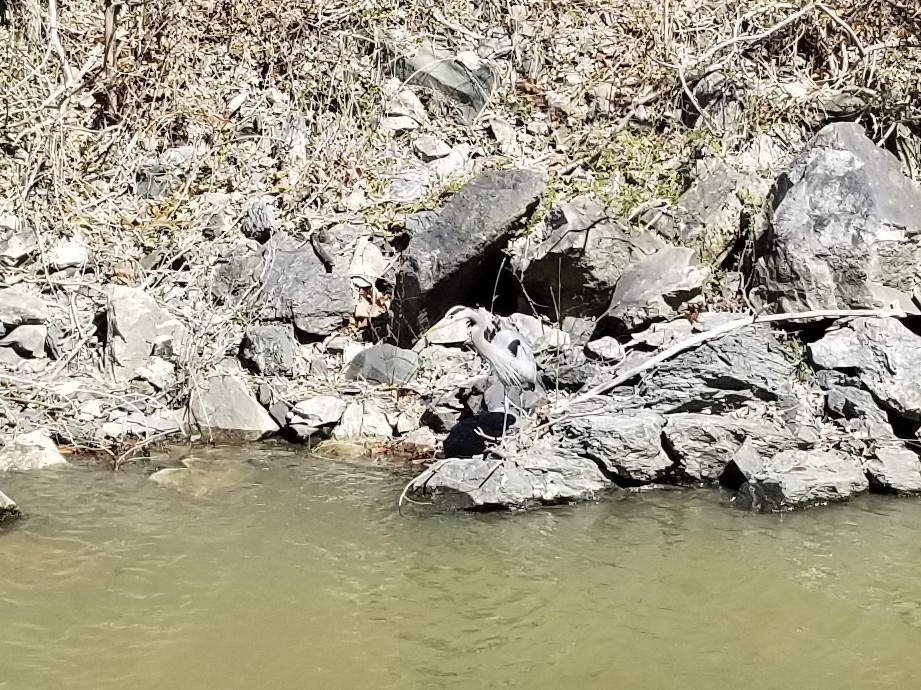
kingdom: Animalia
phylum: Chordata
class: Aves
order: Pelecaniformes
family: Ardeidae
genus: Ardea
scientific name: Ardea herodias
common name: Great blue heron
